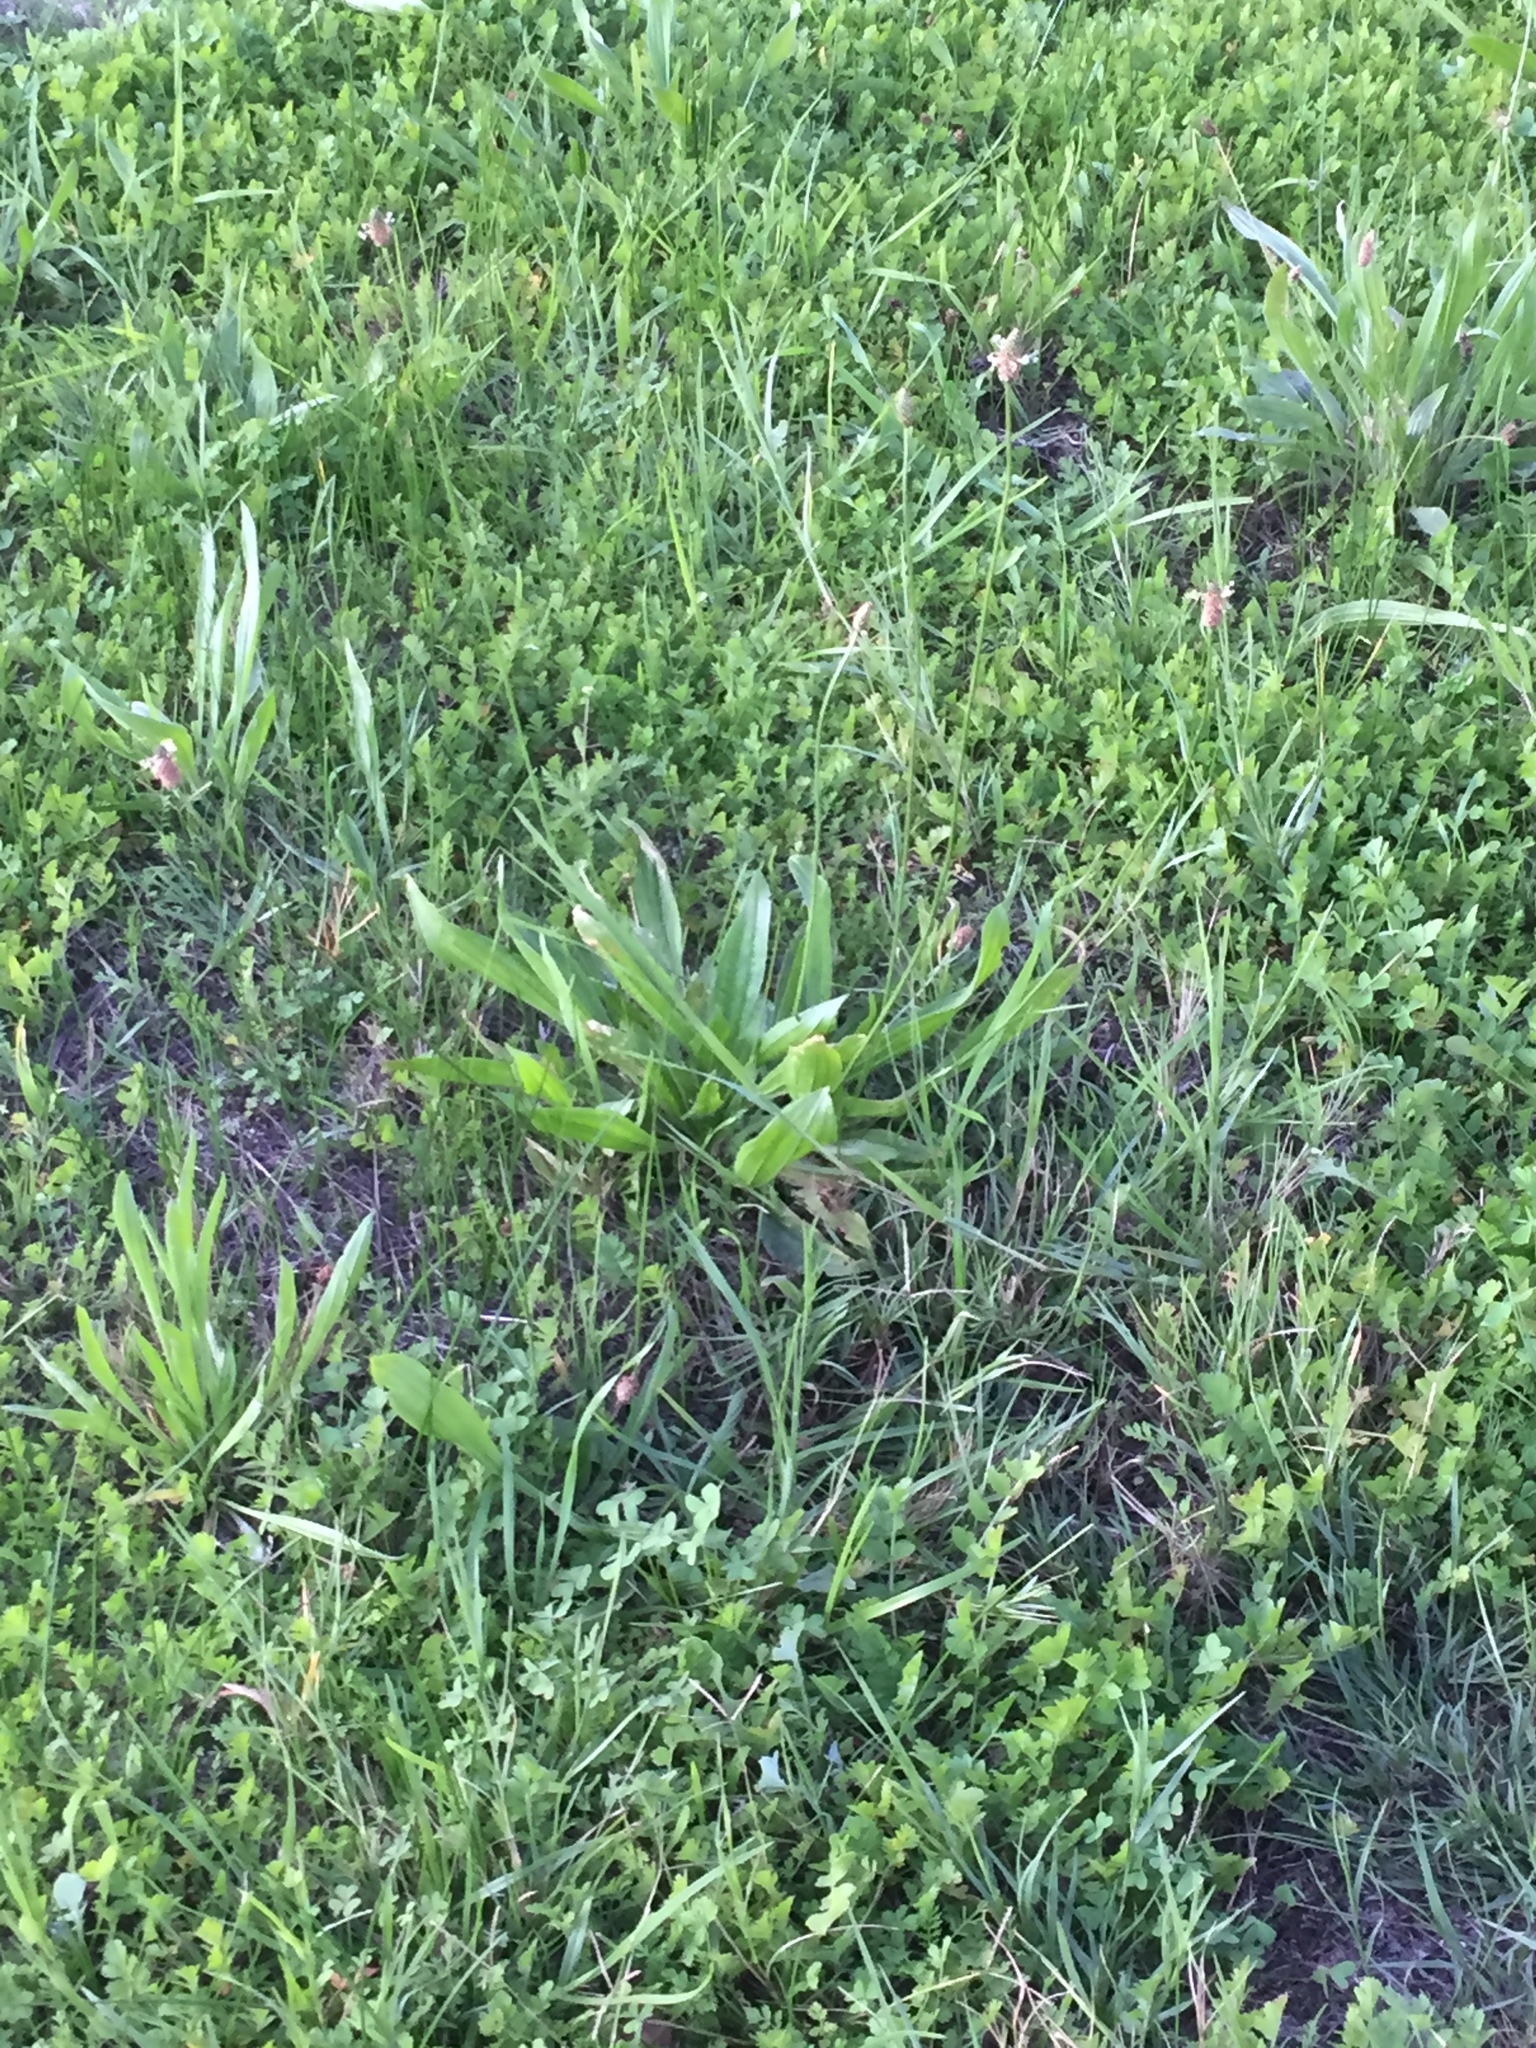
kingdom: Plantae
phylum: Tracheophyta
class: Magnoliopsida
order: Lamiales
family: Plantaginaceae
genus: Plantago
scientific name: Plantago lanceolata
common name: Ribwort plantain
